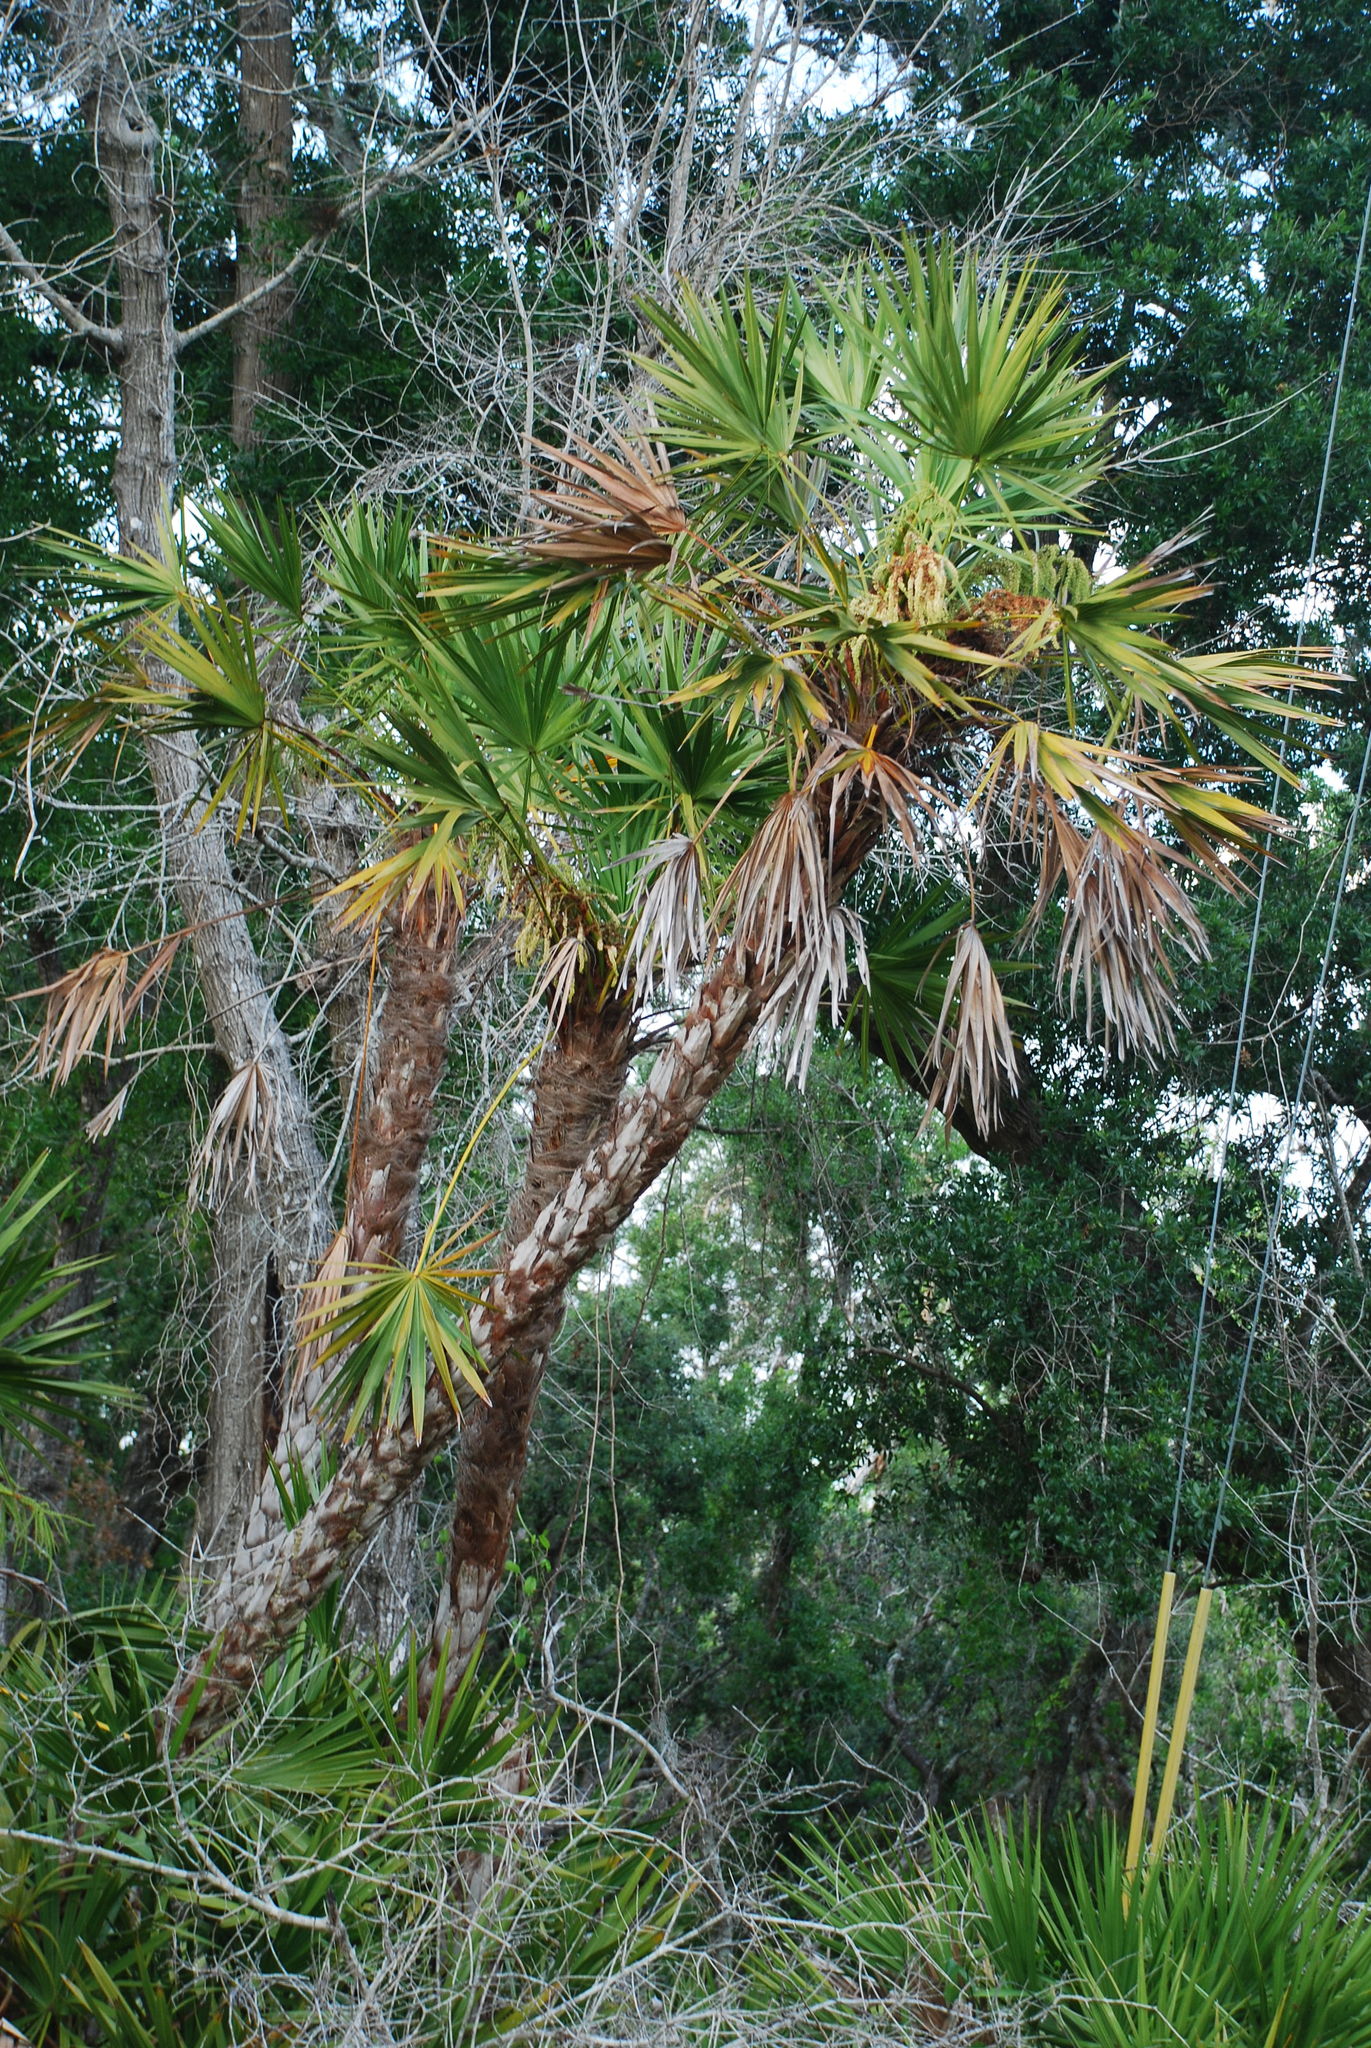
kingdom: Plantae
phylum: Tracheophyta
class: Liliopsida
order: Arecales
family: Arecaceae
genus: Serenoa
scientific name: Serenoa repens
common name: Saw-palmetto
